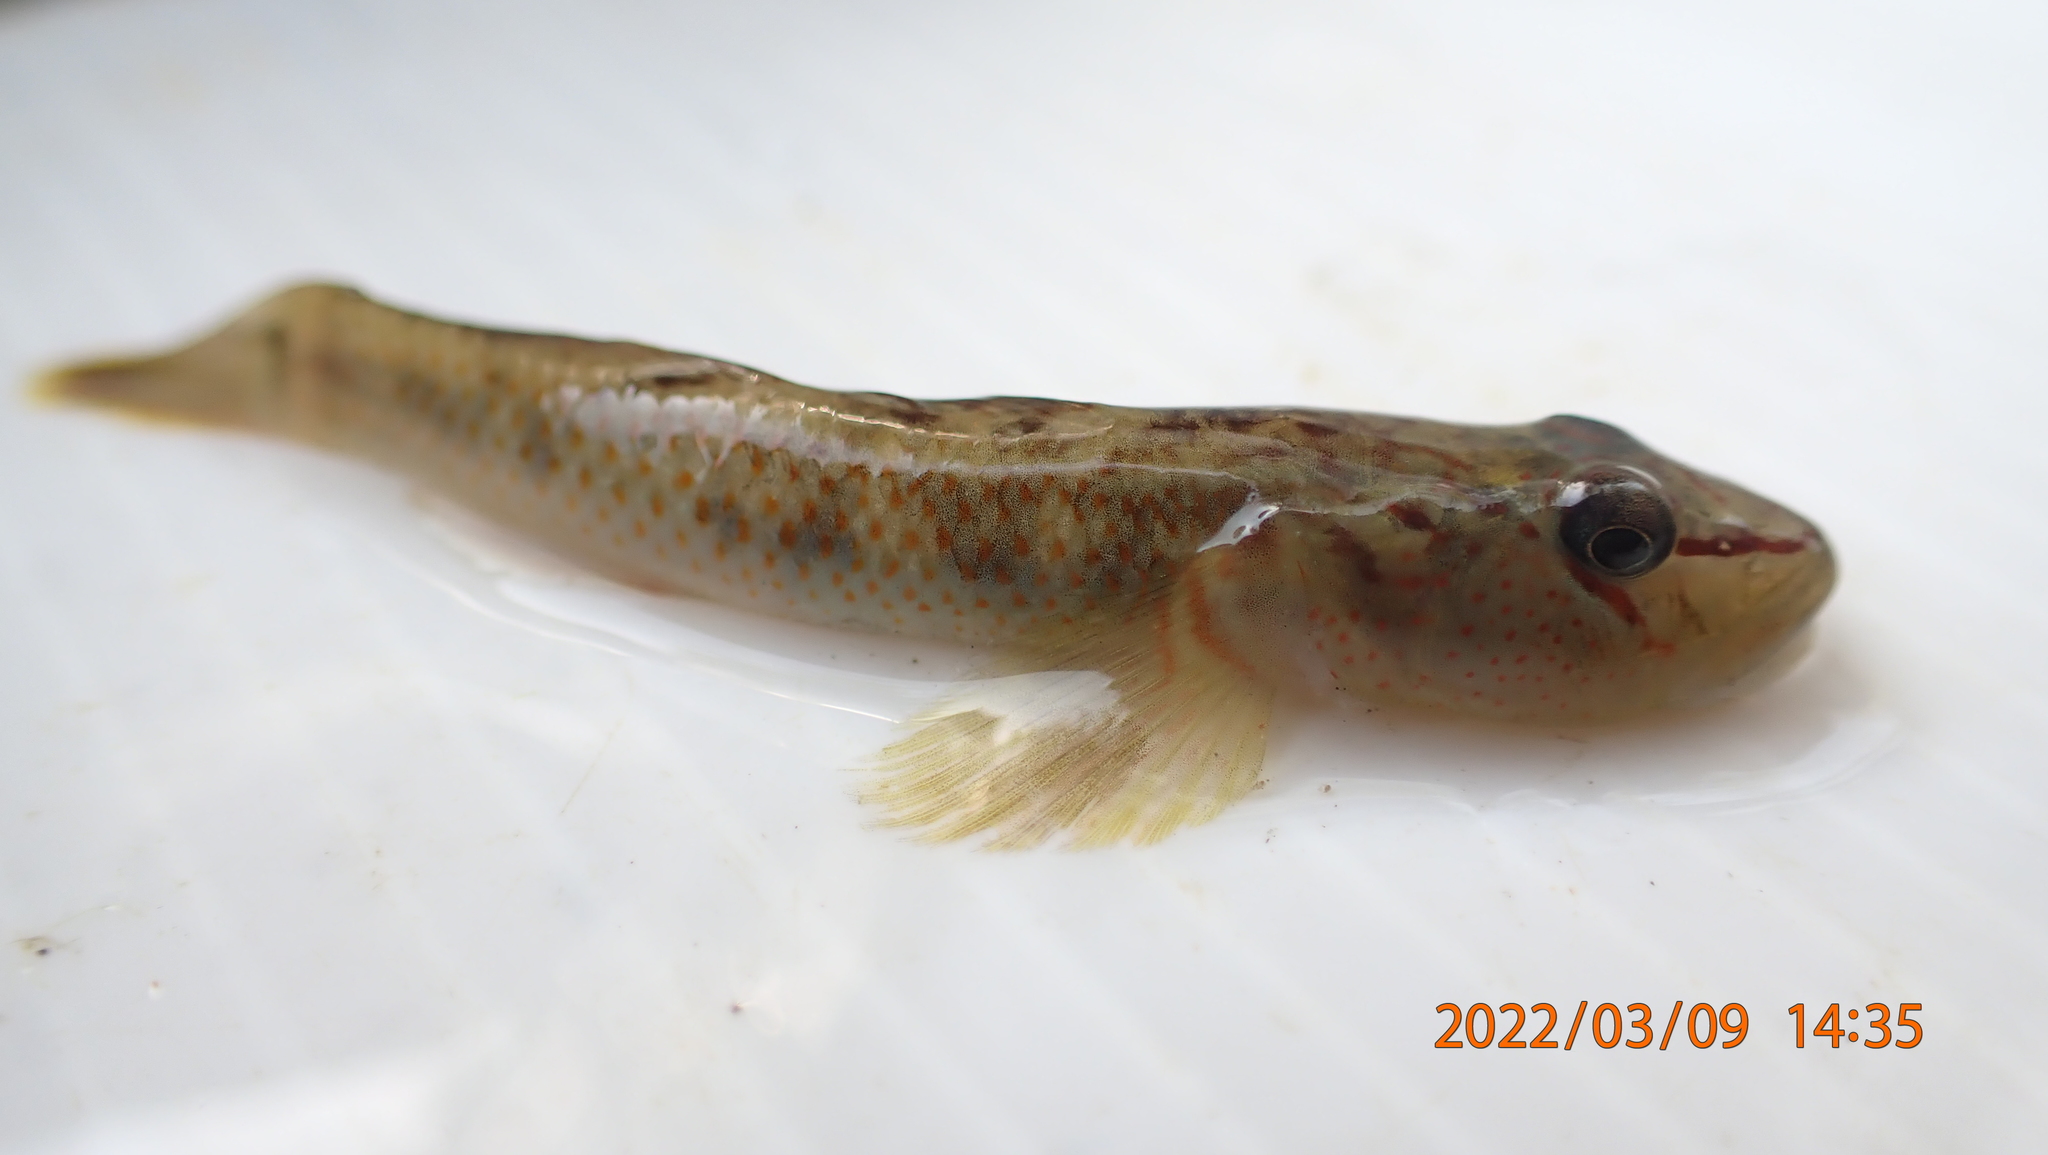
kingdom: Animalia
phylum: Chordata
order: Perciformes
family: Gobiidae
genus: Rhinogobius
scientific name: Rhinogobius nantaiensis
